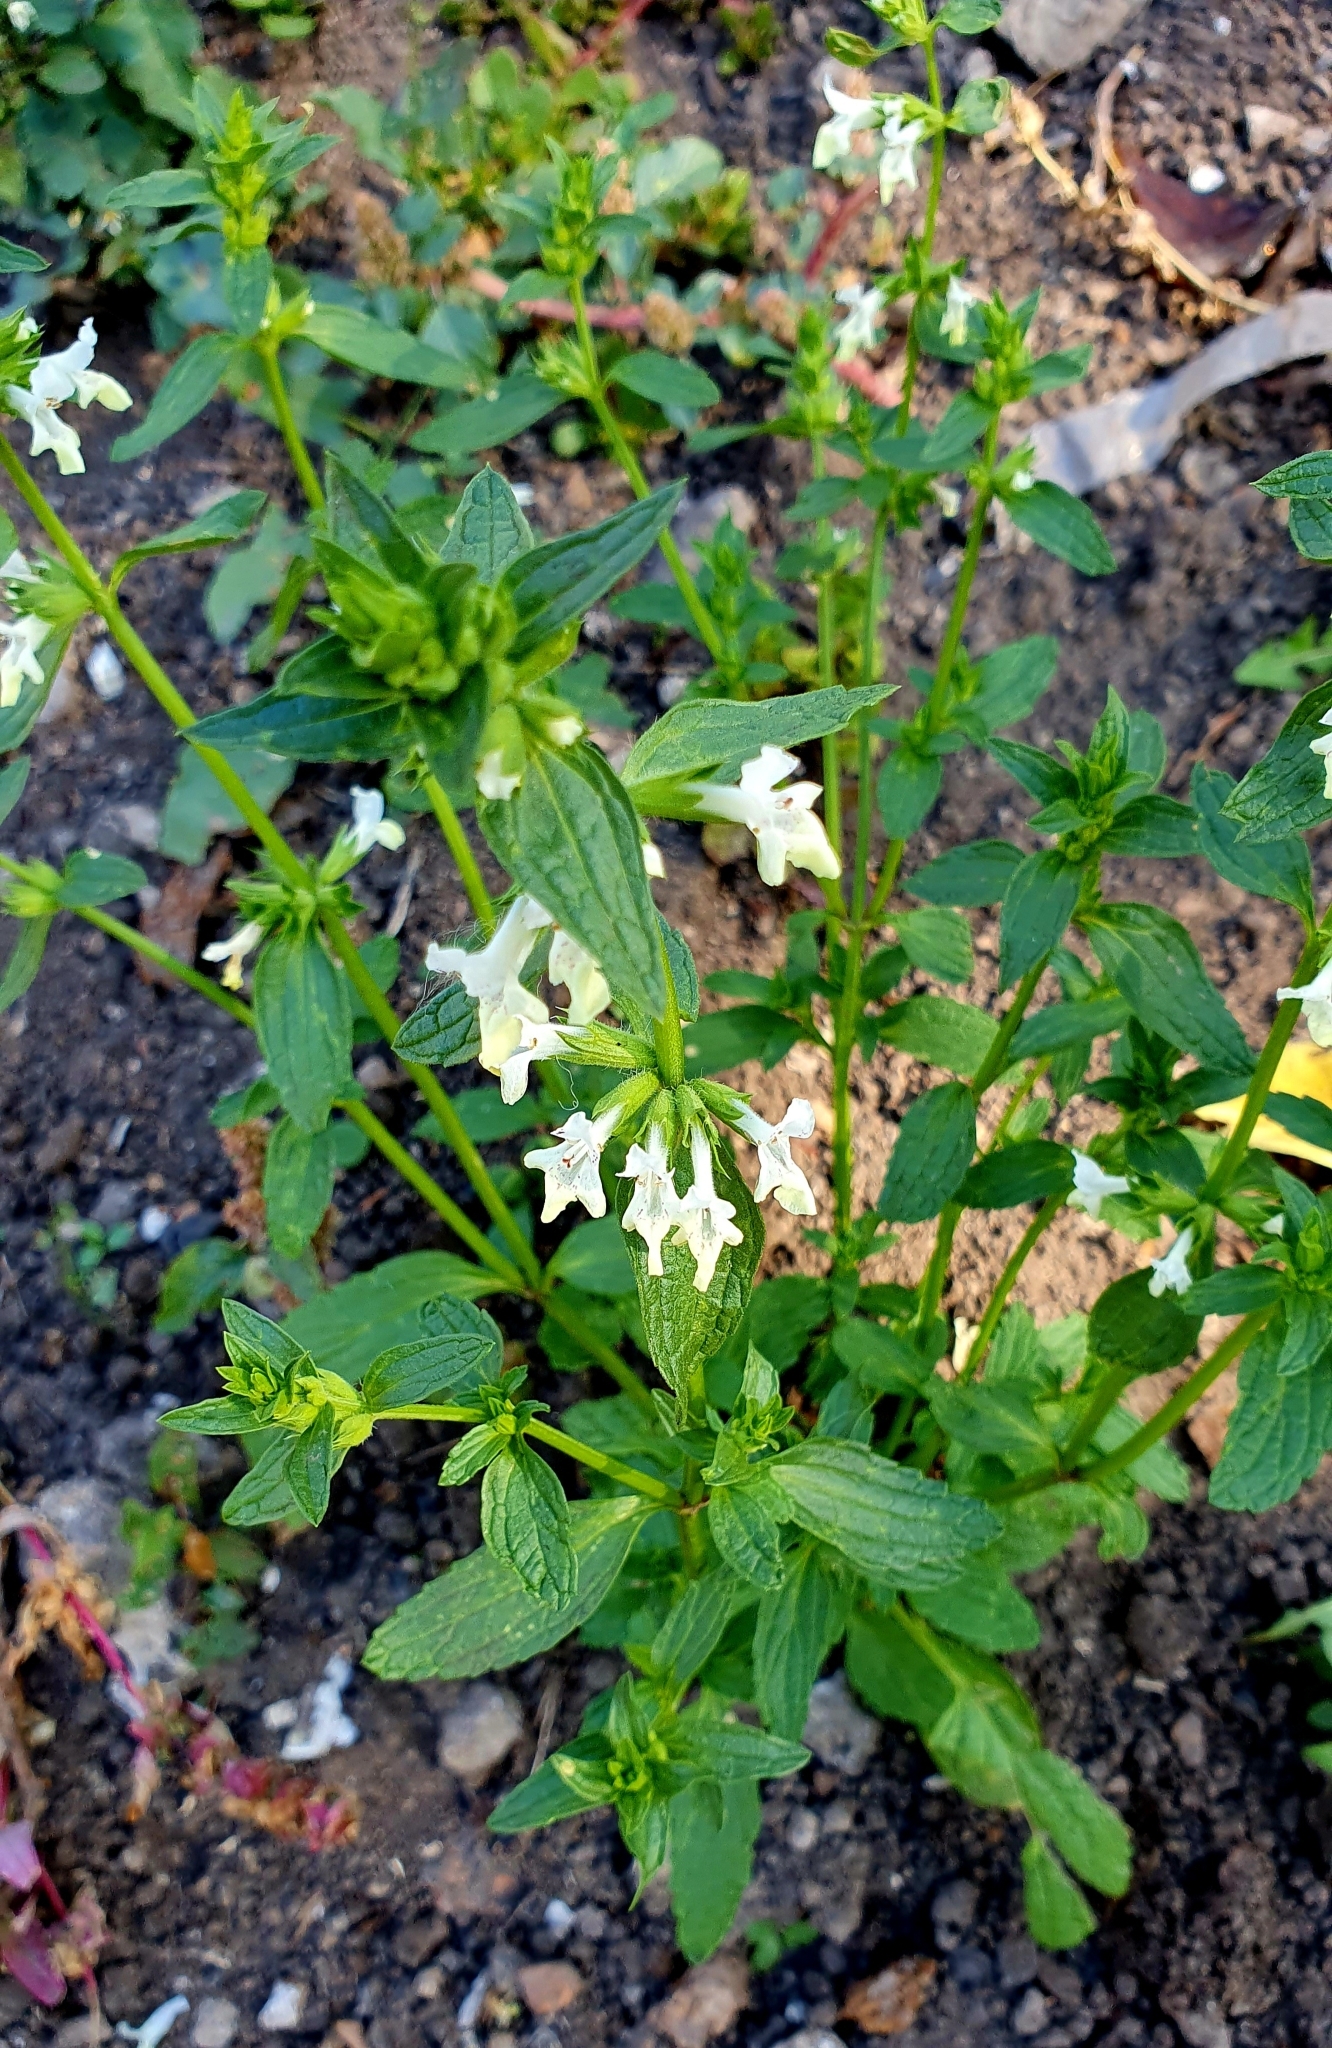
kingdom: Plantae
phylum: Tracheophyta
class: Magnoliopsida
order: Lamiales
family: Lamiaceae
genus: Stachys
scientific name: Stachys annua
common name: Annual yellow-woundwort
